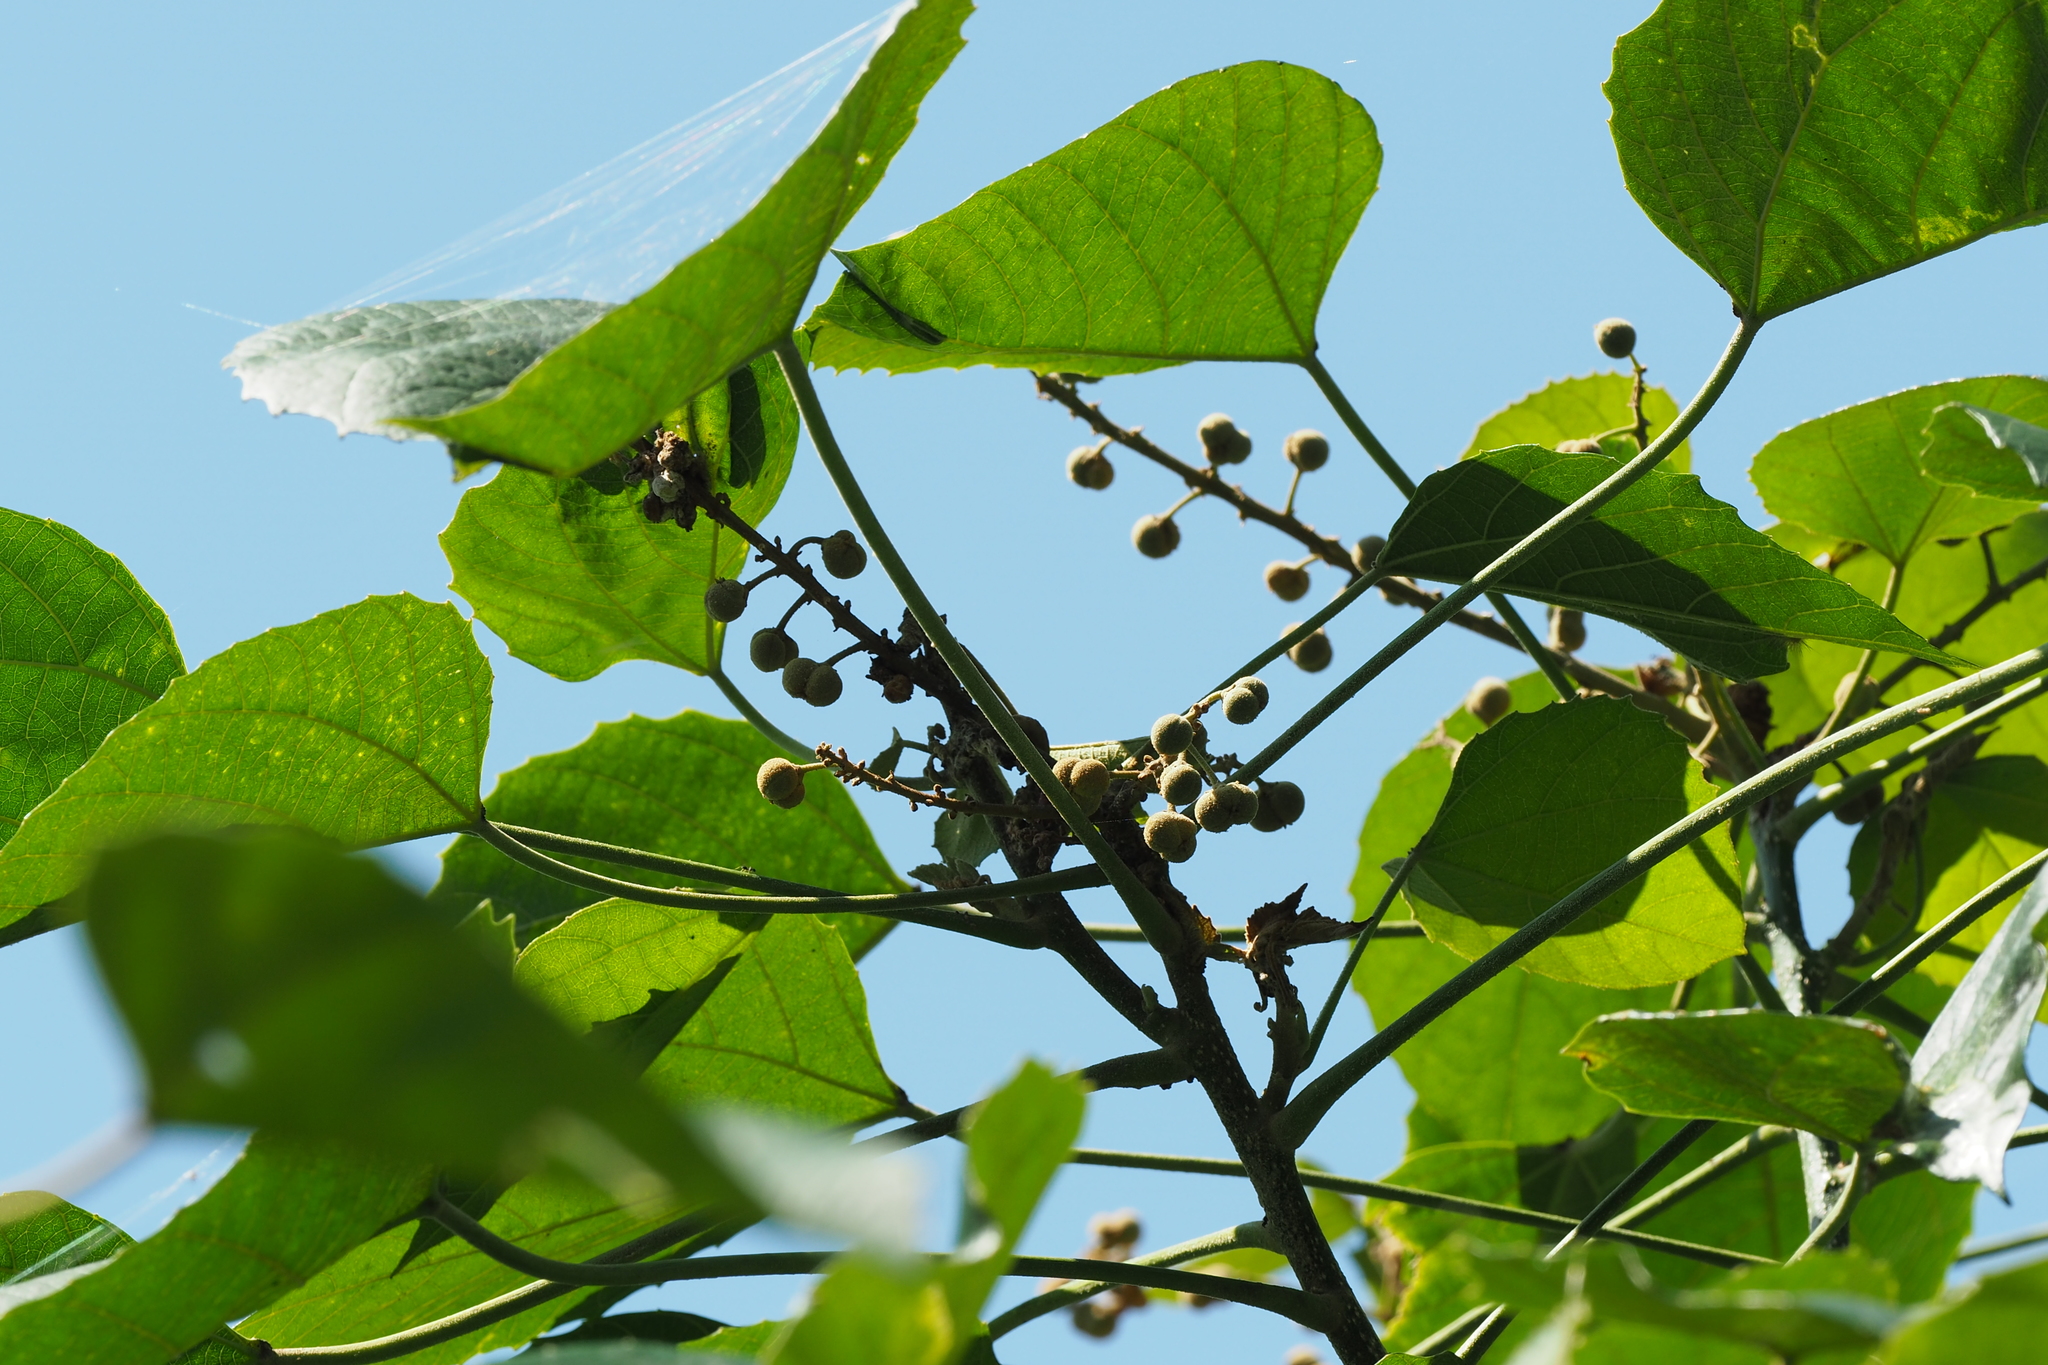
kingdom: Plantae
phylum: Tracheophyta
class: Magnoliopsida
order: Malpighiales
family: Euphorbiaceae
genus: Melanolepis
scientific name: Melanolepis multiglandulosa
